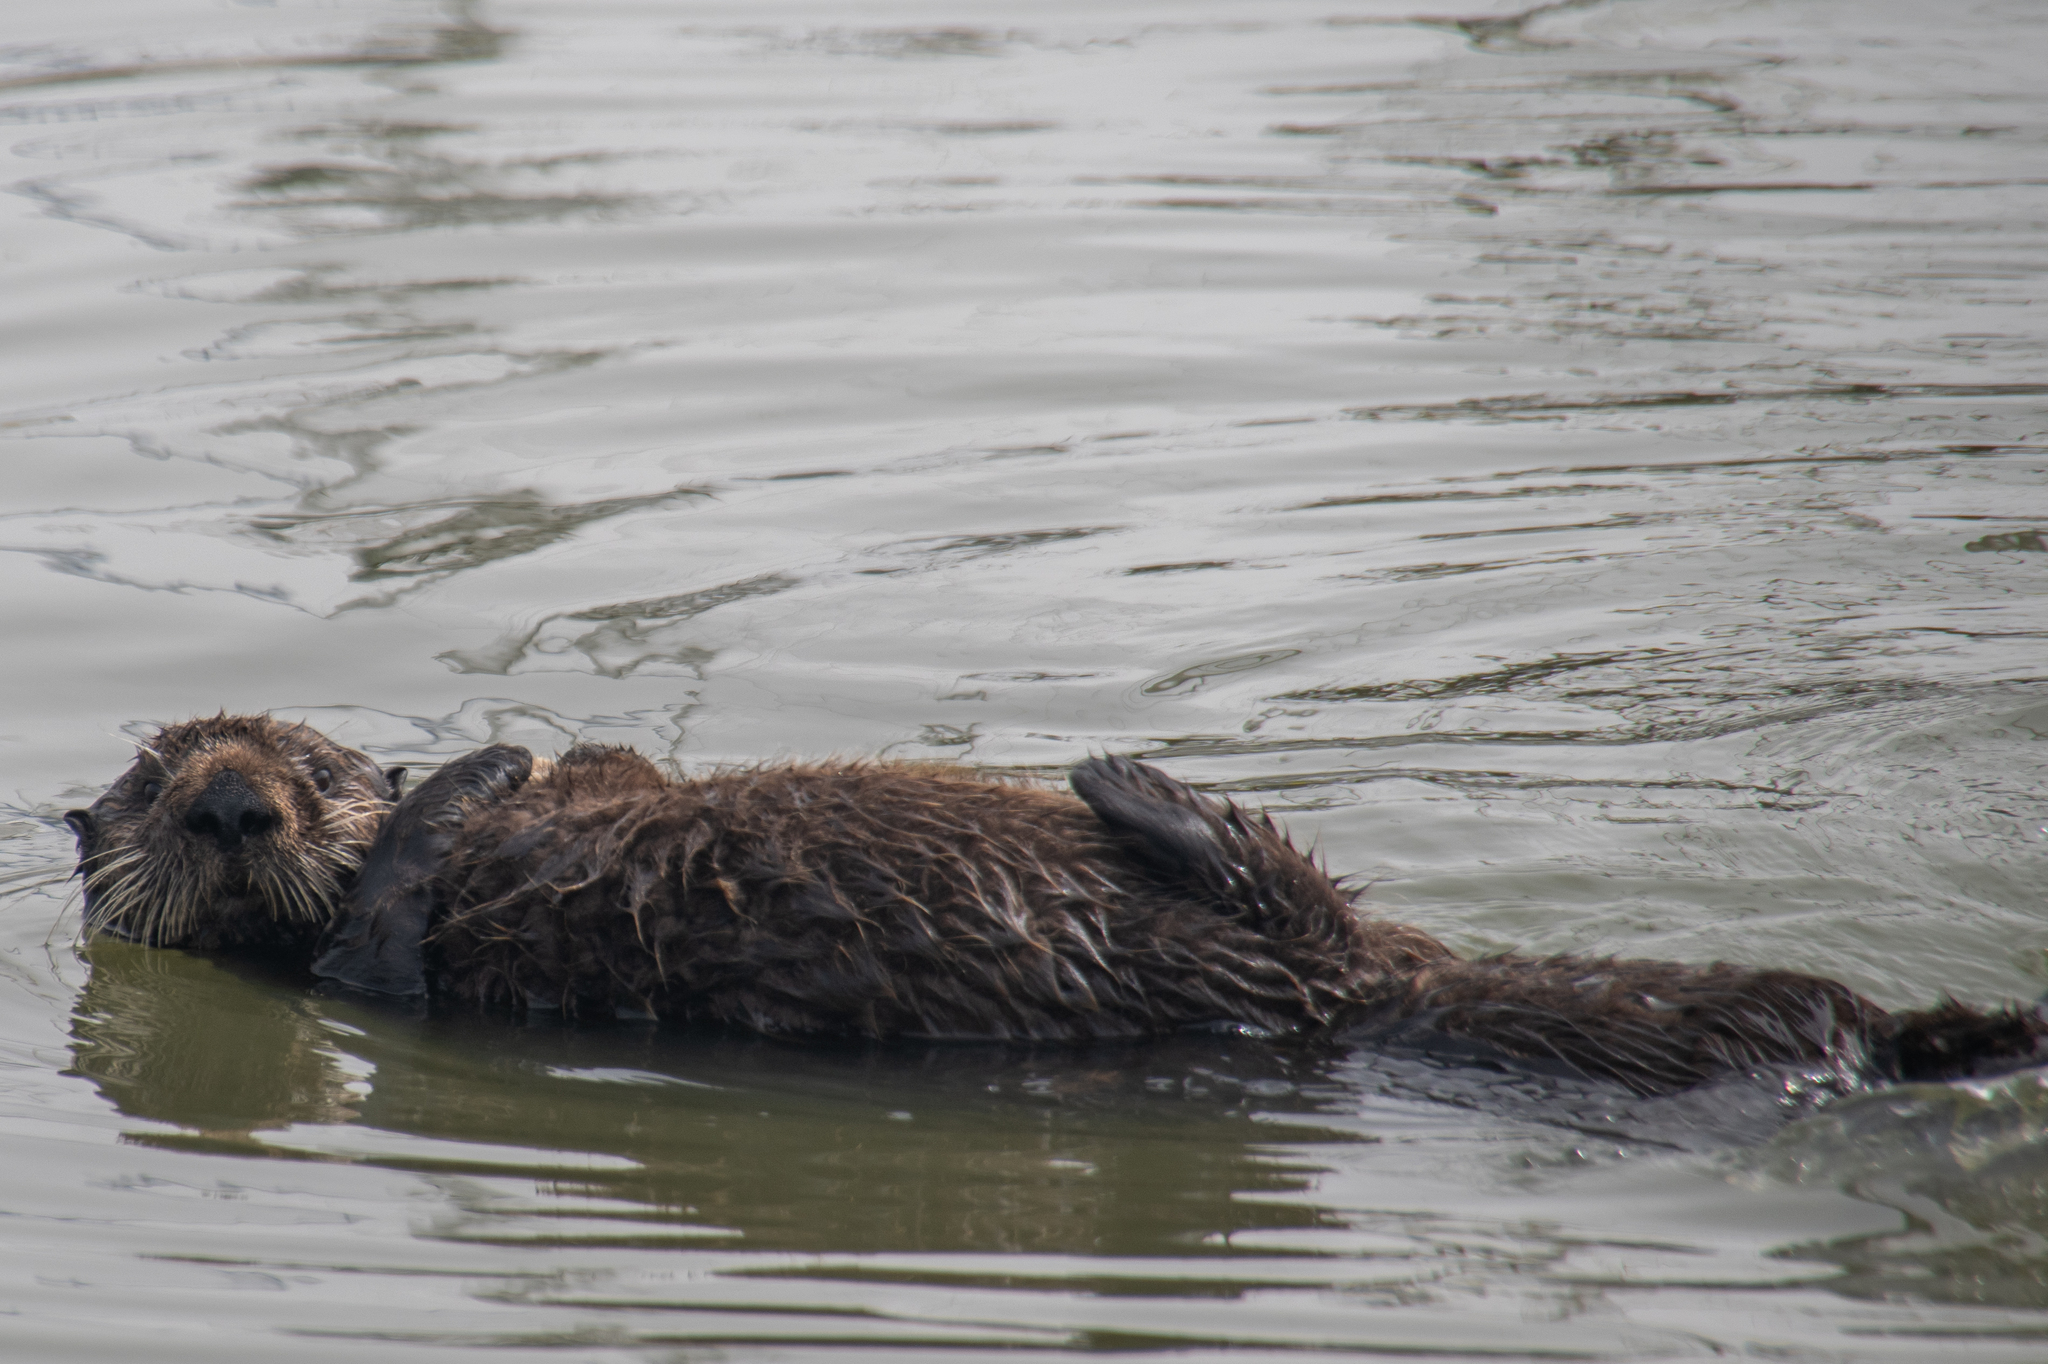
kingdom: Animalia
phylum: Chordata
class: Mammalia
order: Carnivora
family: Mustelidae
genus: Enhydra
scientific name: Enhydra lutris
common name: Sea otter
